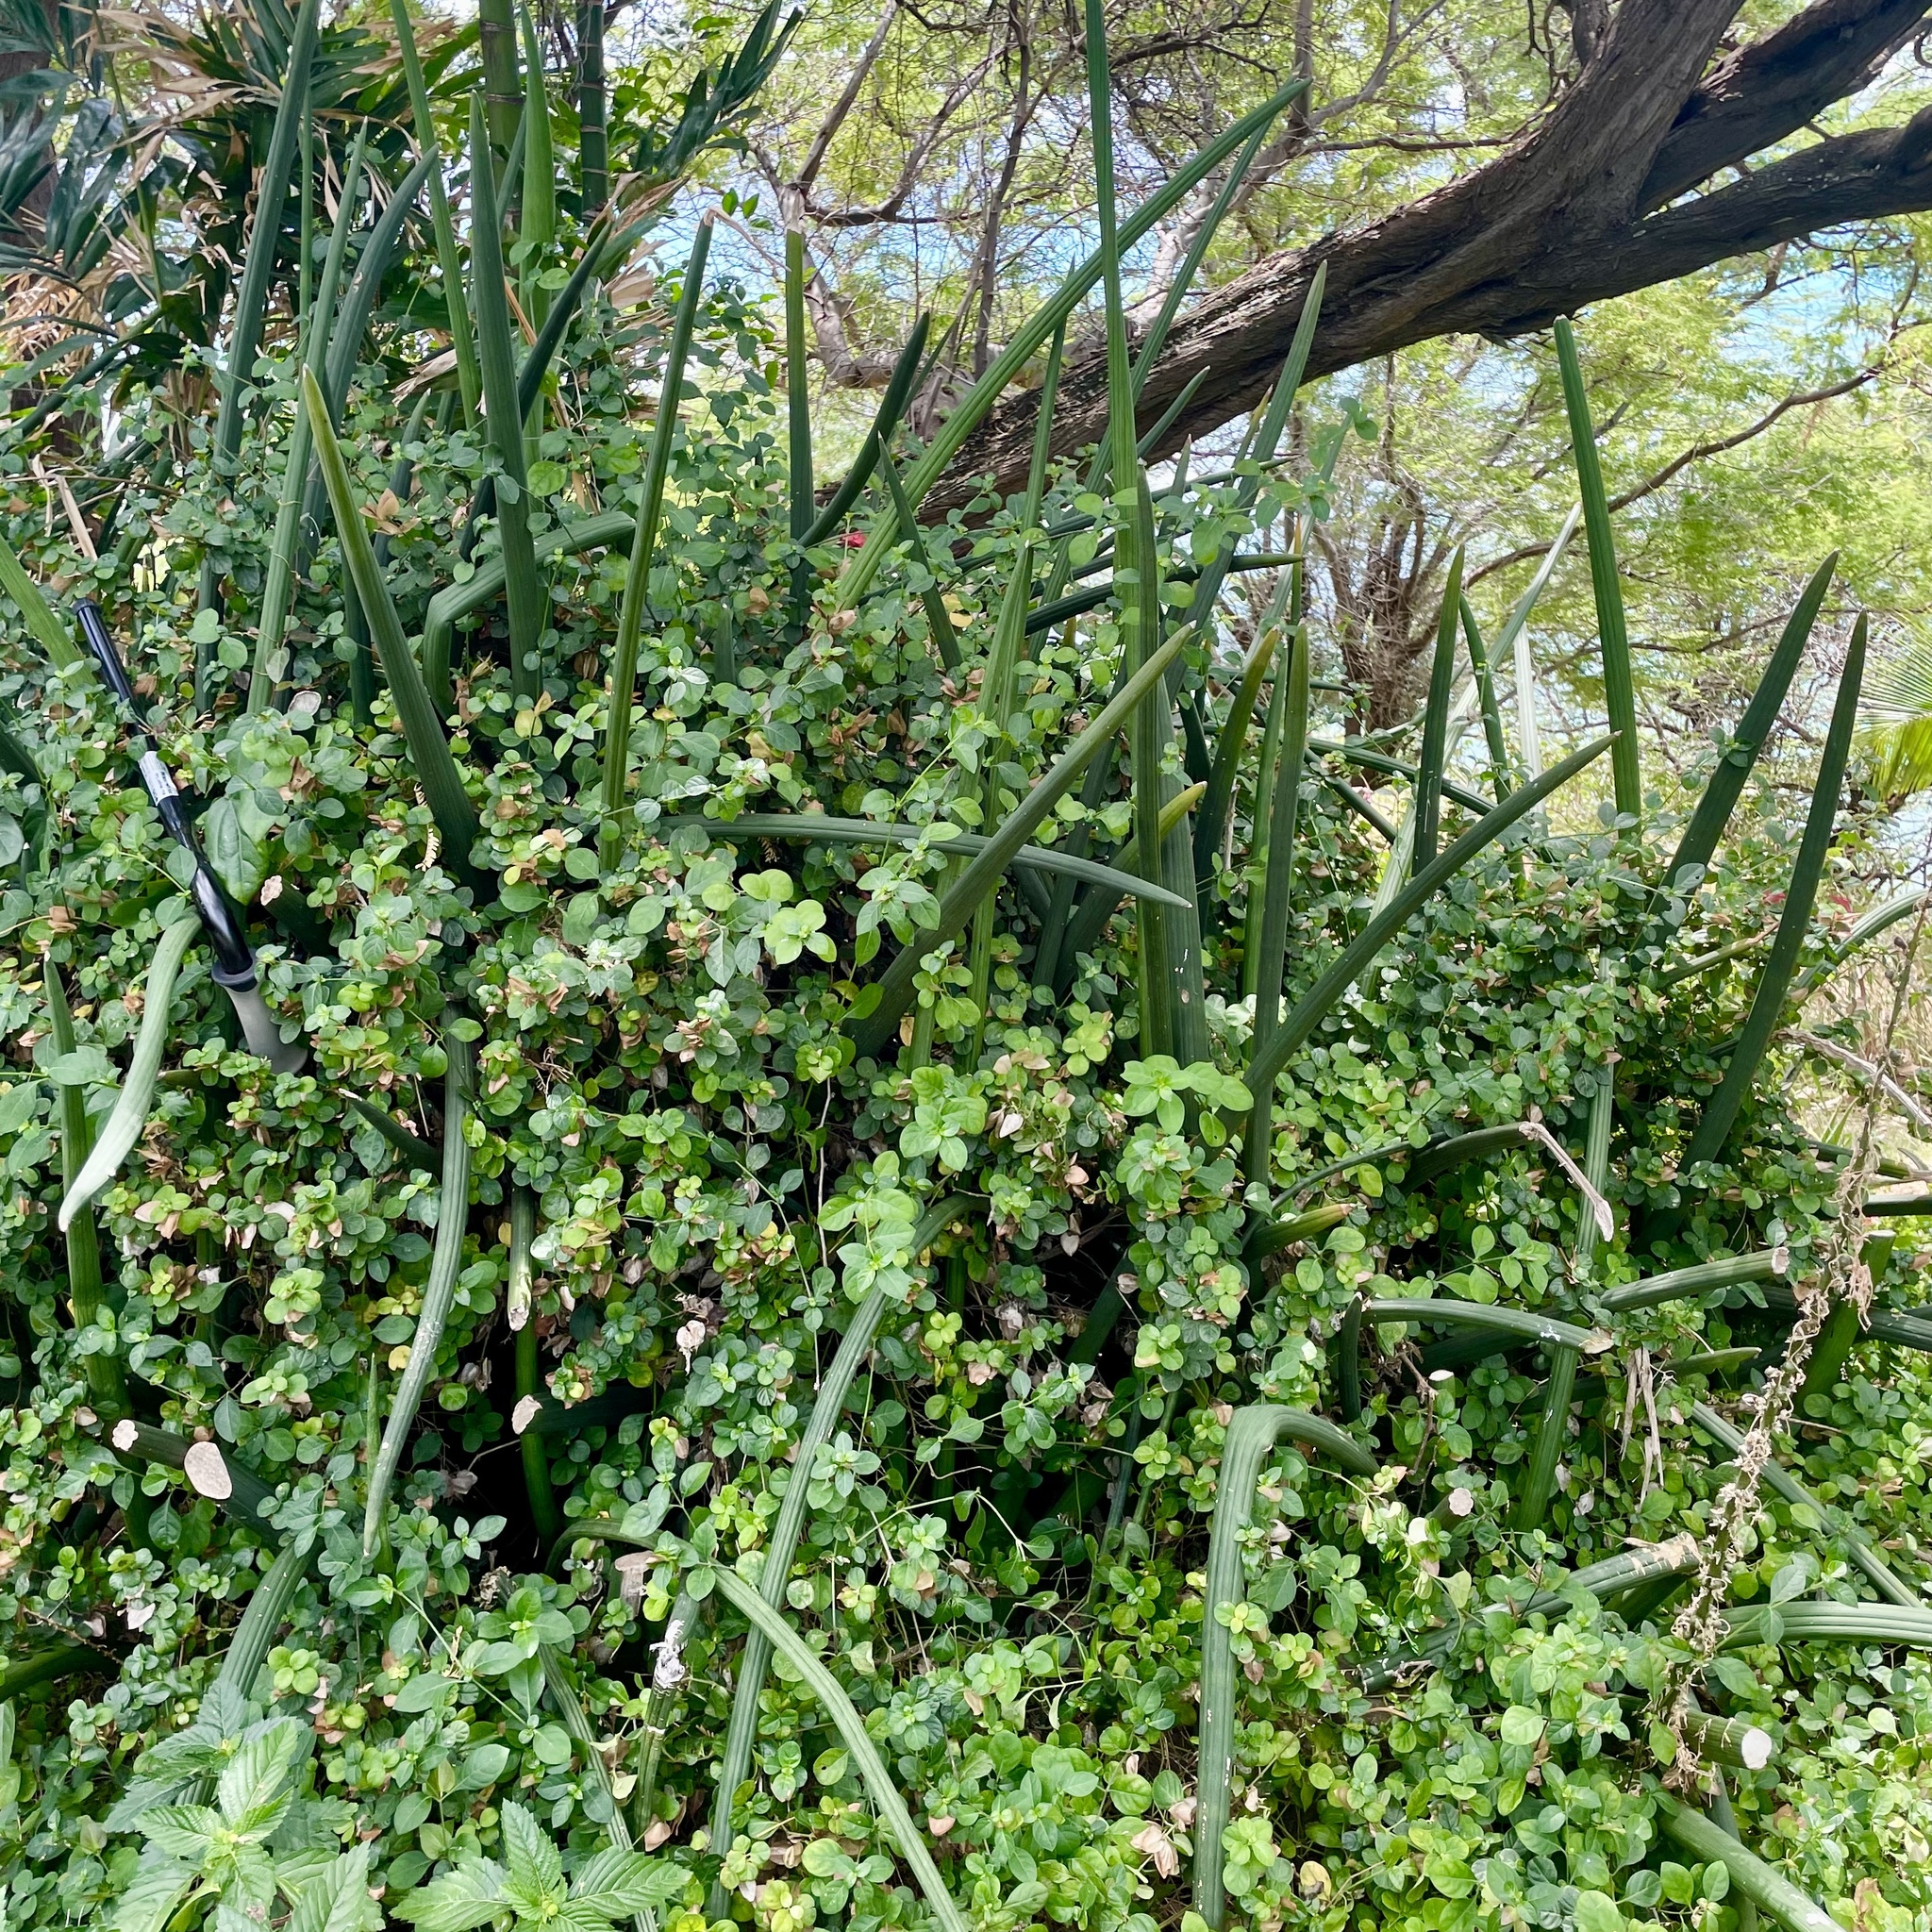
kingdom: Plantae
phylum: Tracheophyta
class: Liliopsida
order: Asparagales
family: Asparagaceae
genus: Dracaena
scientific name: Dracaena angolensis
